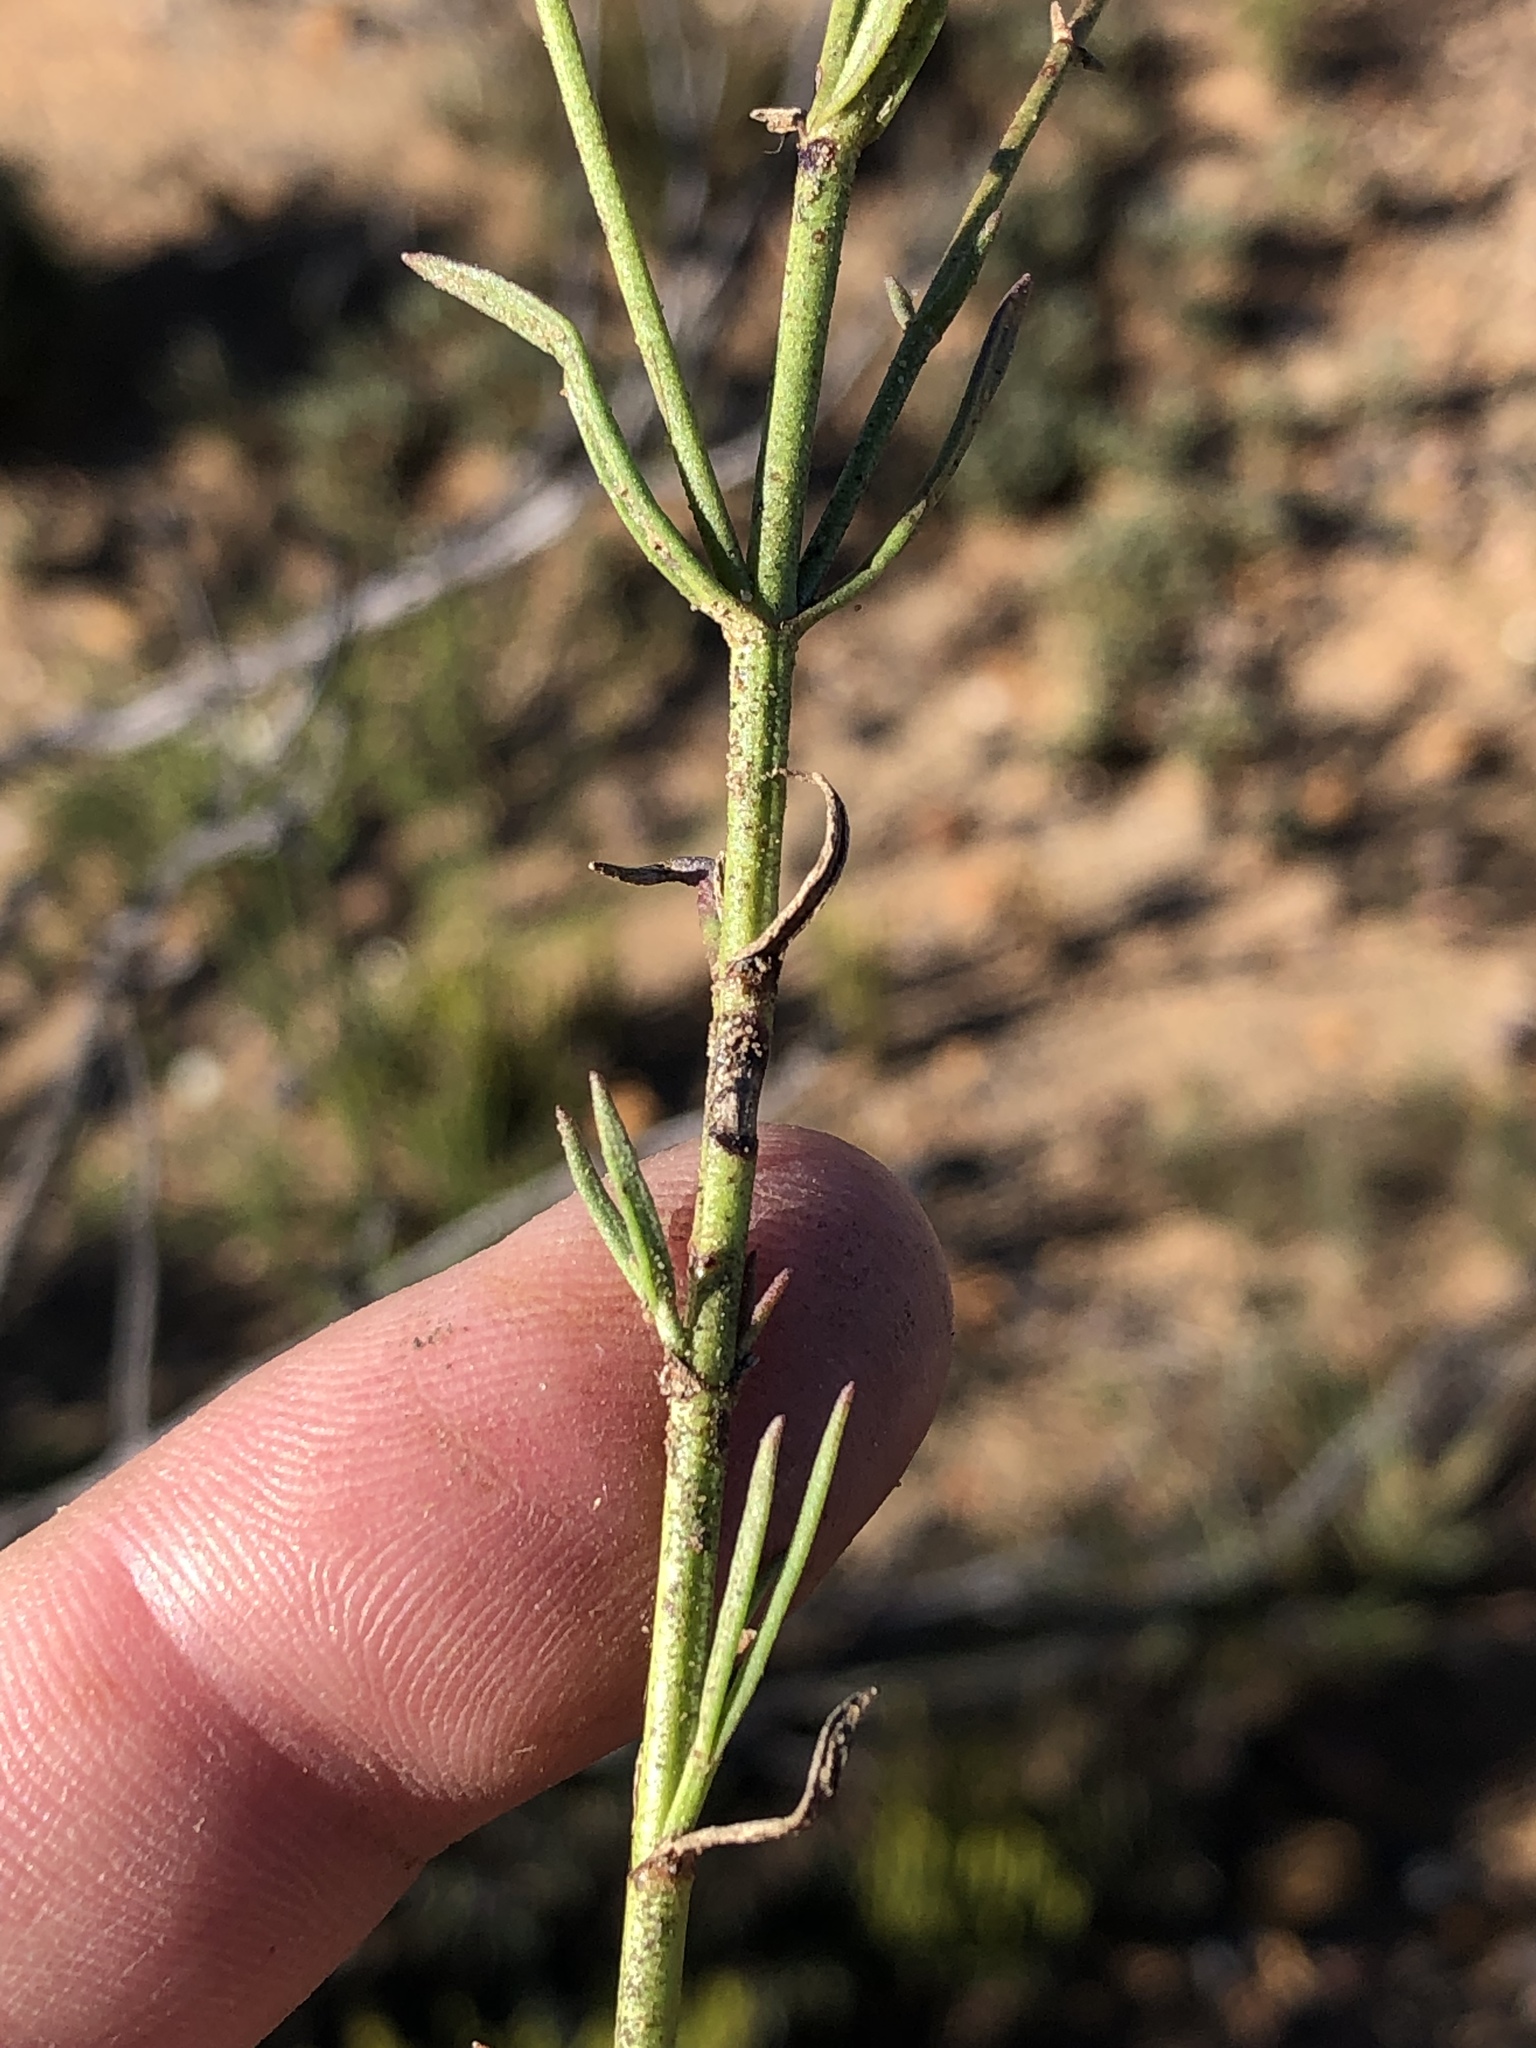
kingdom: Plantae
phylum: Tracheophyta
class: Magnoliopsida
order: Lamiales
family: Scrophulariaceae
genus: Chaenostoma
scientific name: Chaenostoma subnudum
